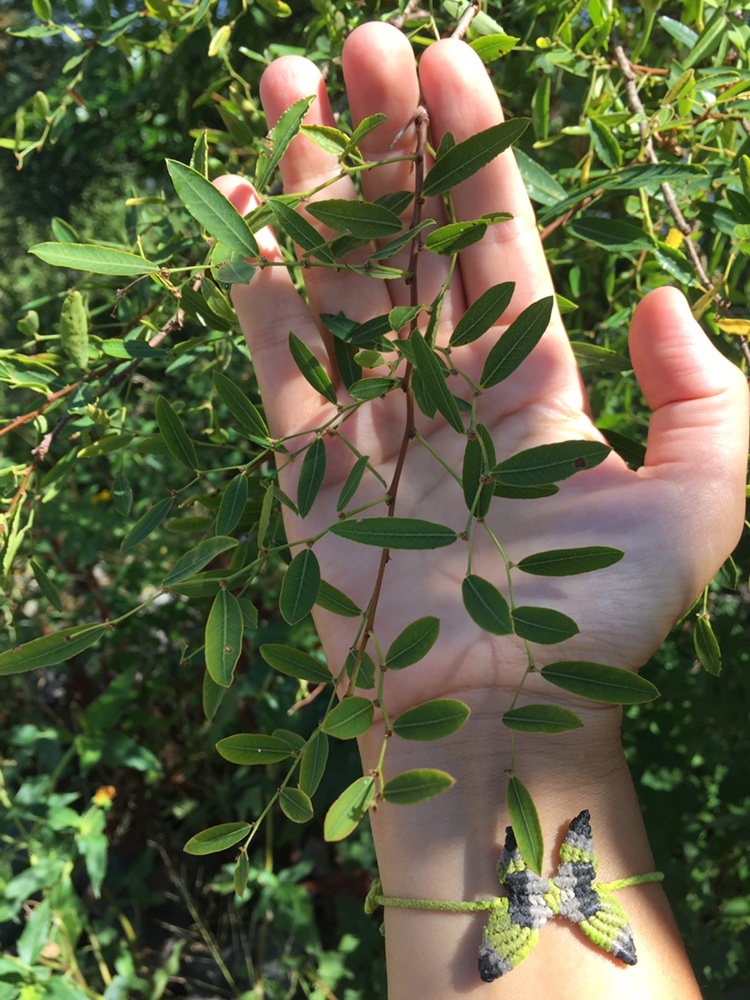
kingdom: Plantae
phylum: Tracheophyta
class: Magnoliopsida
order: Malpighiales
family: Phyllanthaceae
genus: Phyllanthus
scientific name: Phyllanthus sellowianus
